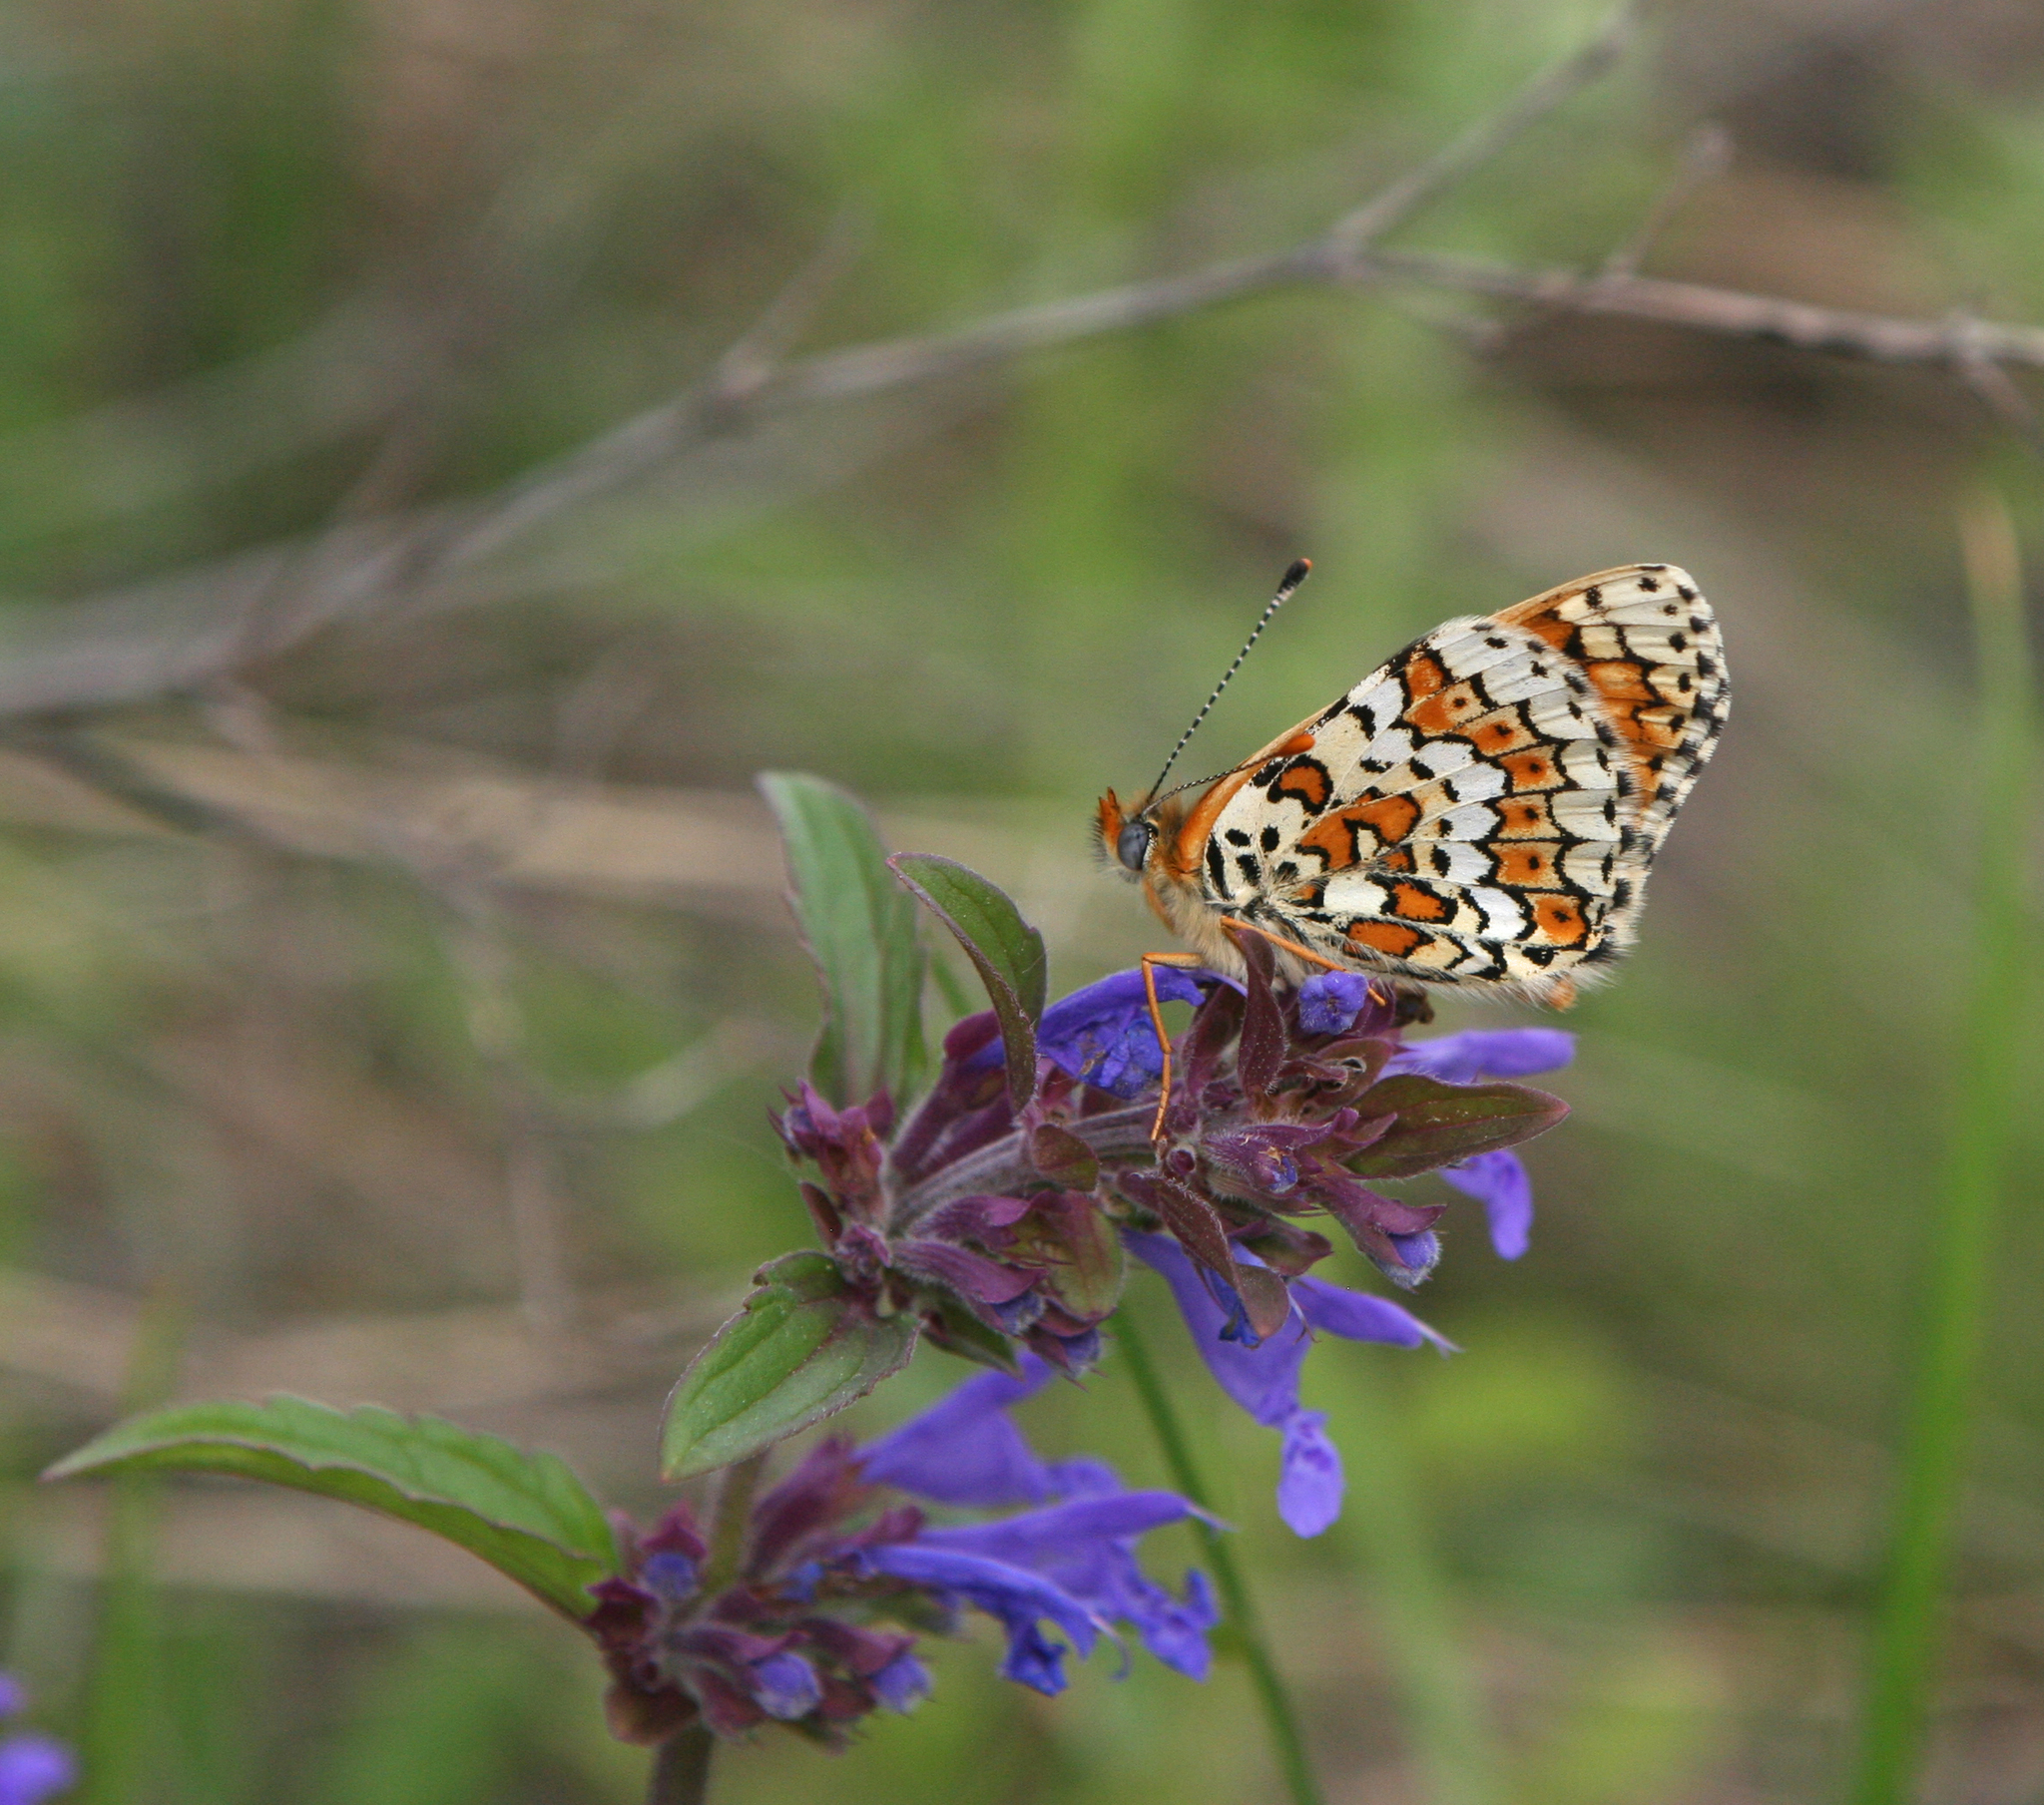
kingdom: Animalia
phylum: Arthropoda
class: Insecta
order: Lepidoptera
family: Nymphalidae
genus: Melitaea
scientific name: Melitaea cinxia
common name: Glanville fritillary
